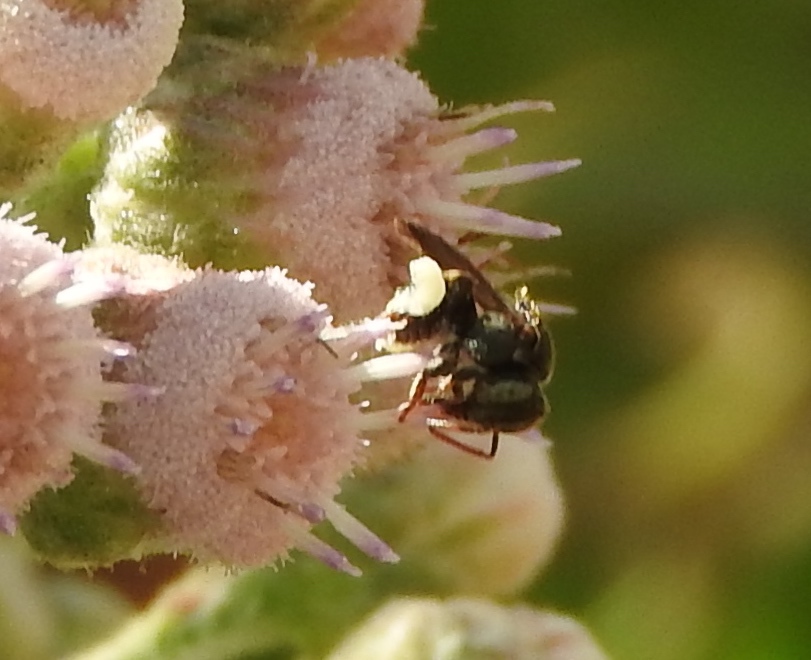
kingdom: Animalia
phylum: Arthropoda
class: Insecta
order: Hymenoptera
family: Apidae
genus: Nannotrigona
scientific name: Nannotrigona perilampoides
